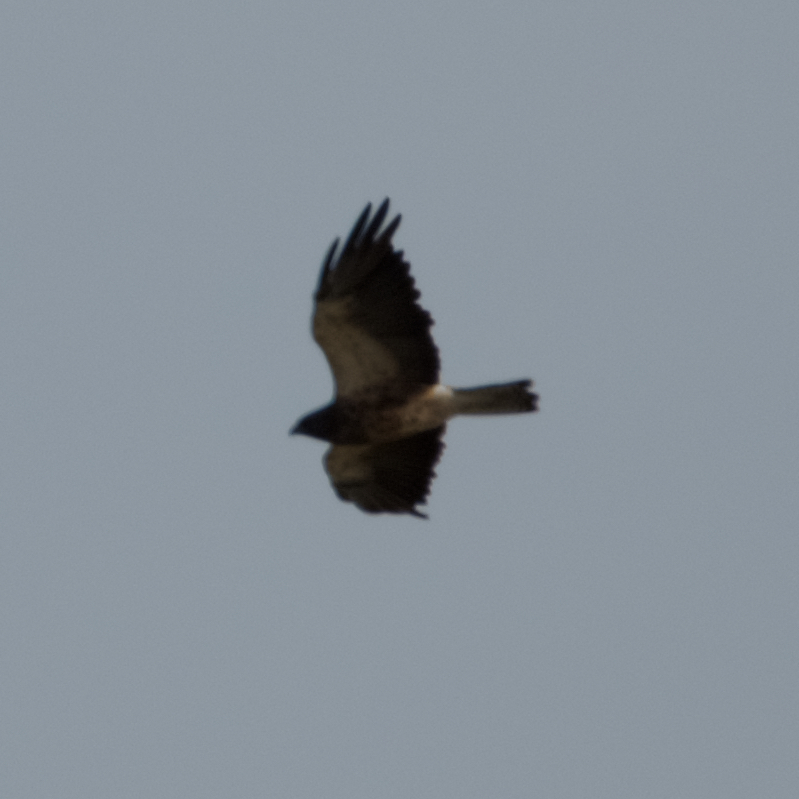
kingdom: Animalia
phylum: Chordata
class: Aves
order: Accipitriformes
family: Accipitridae
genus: Buteo
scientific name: Buteo swainsoni
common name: Swainson's hawk
